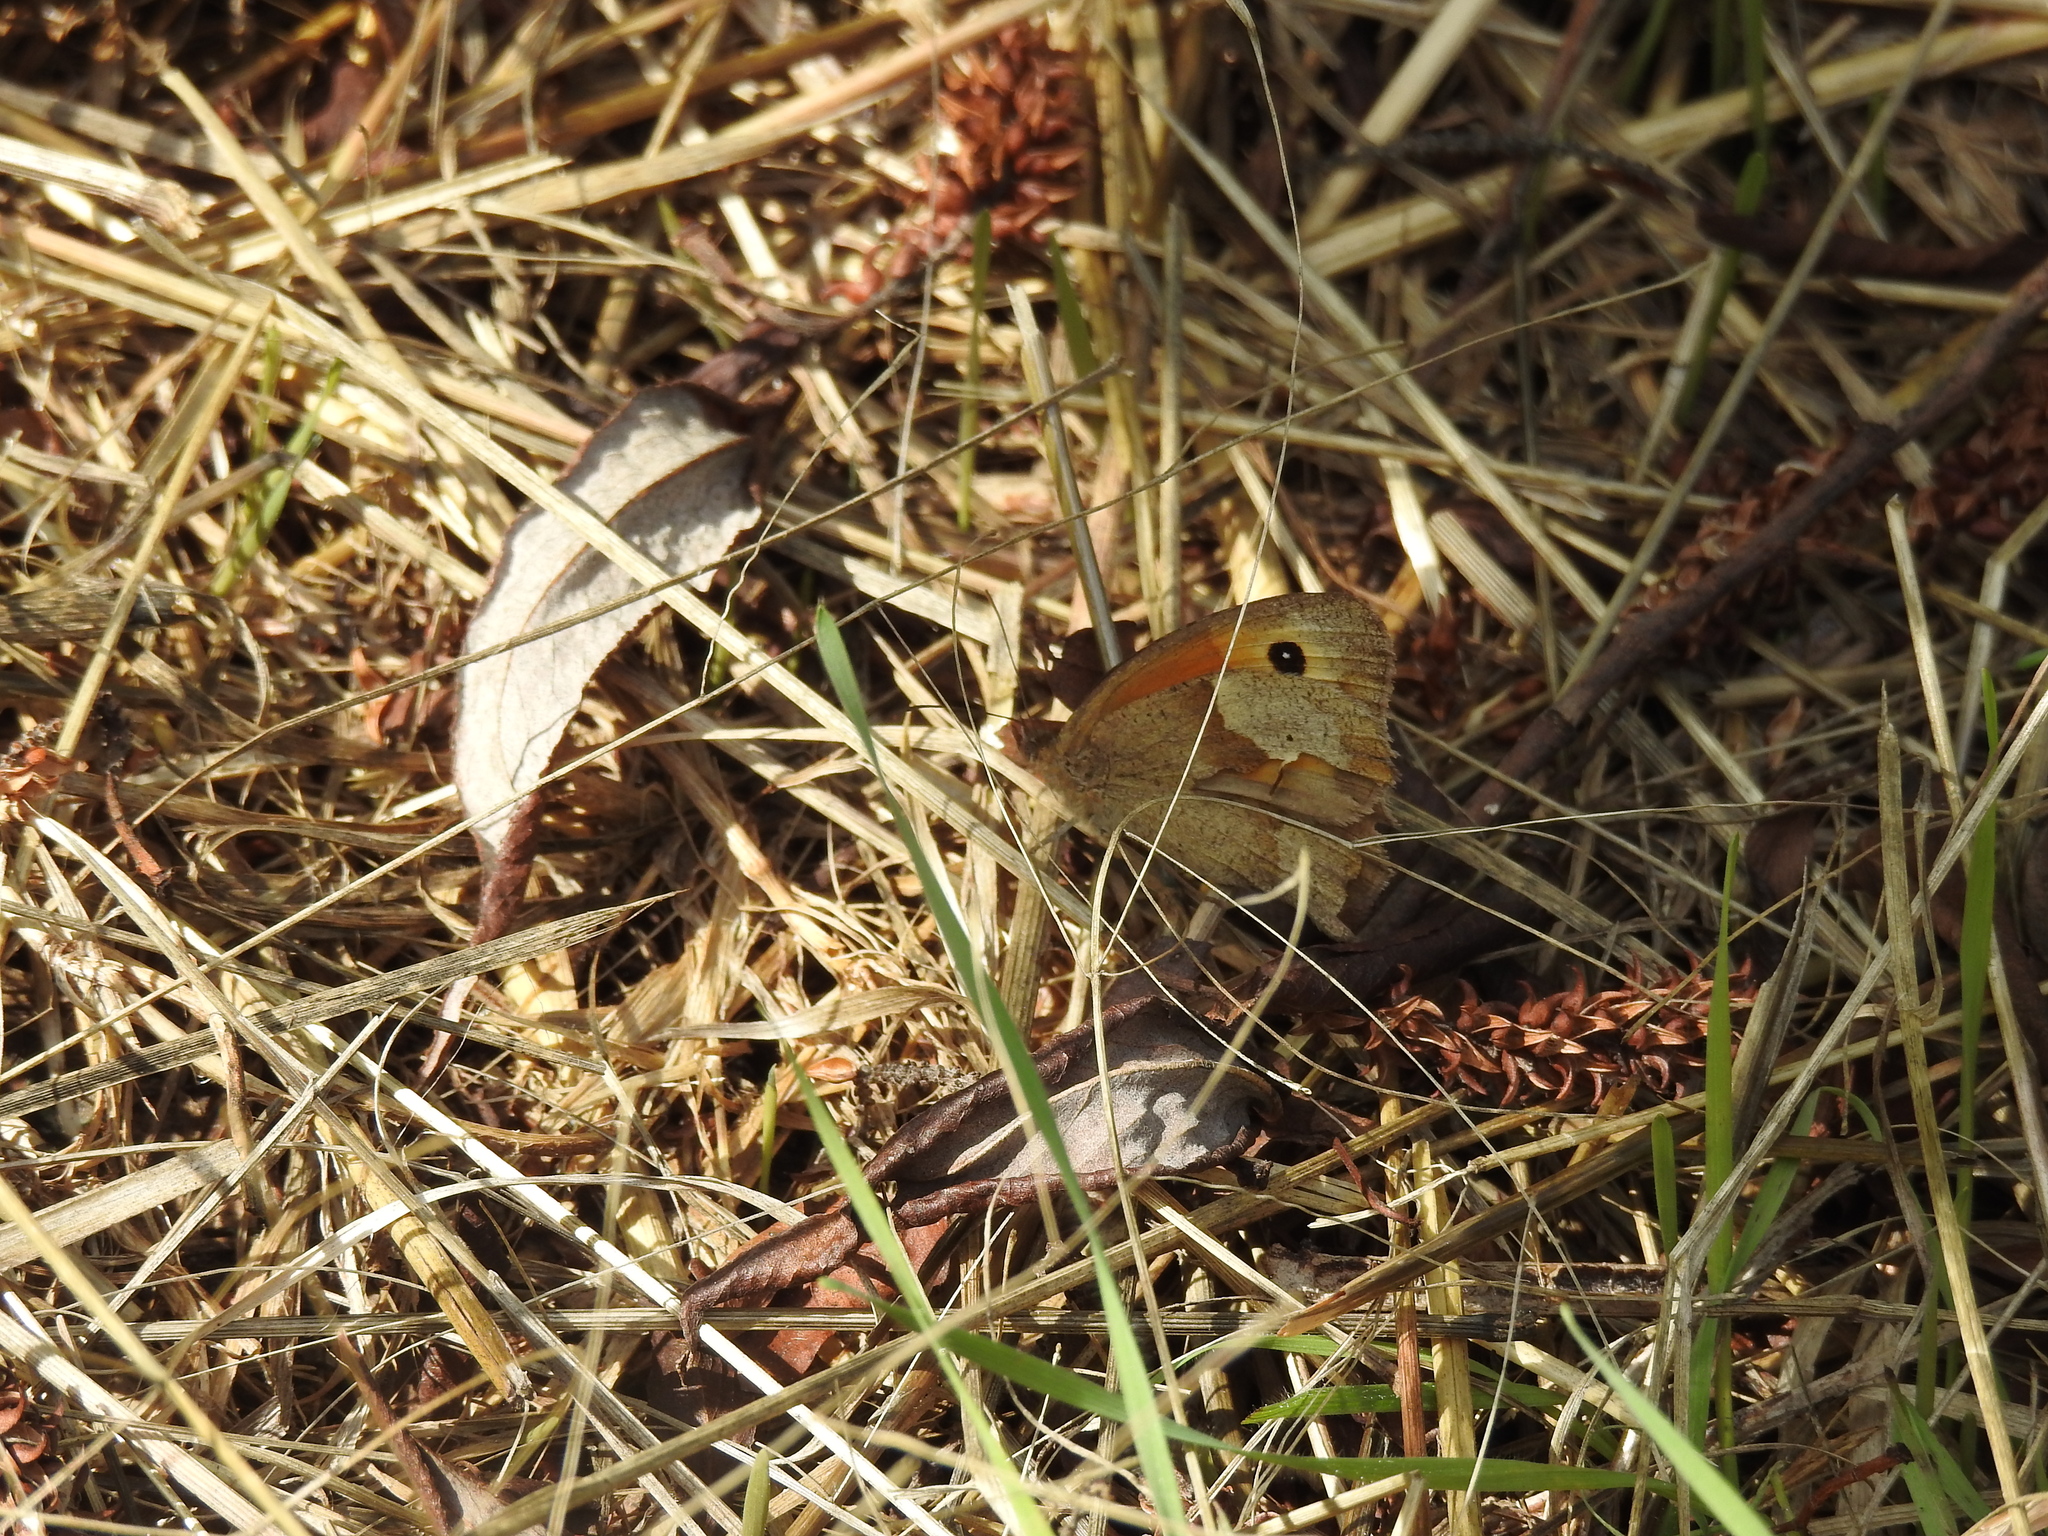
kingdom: Animalia
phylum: Arthropoda
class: Insecta
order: Lepidoptera
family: Nymphalidae
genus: Maniola
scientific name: Maniola jurtina
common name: Meadow brown
